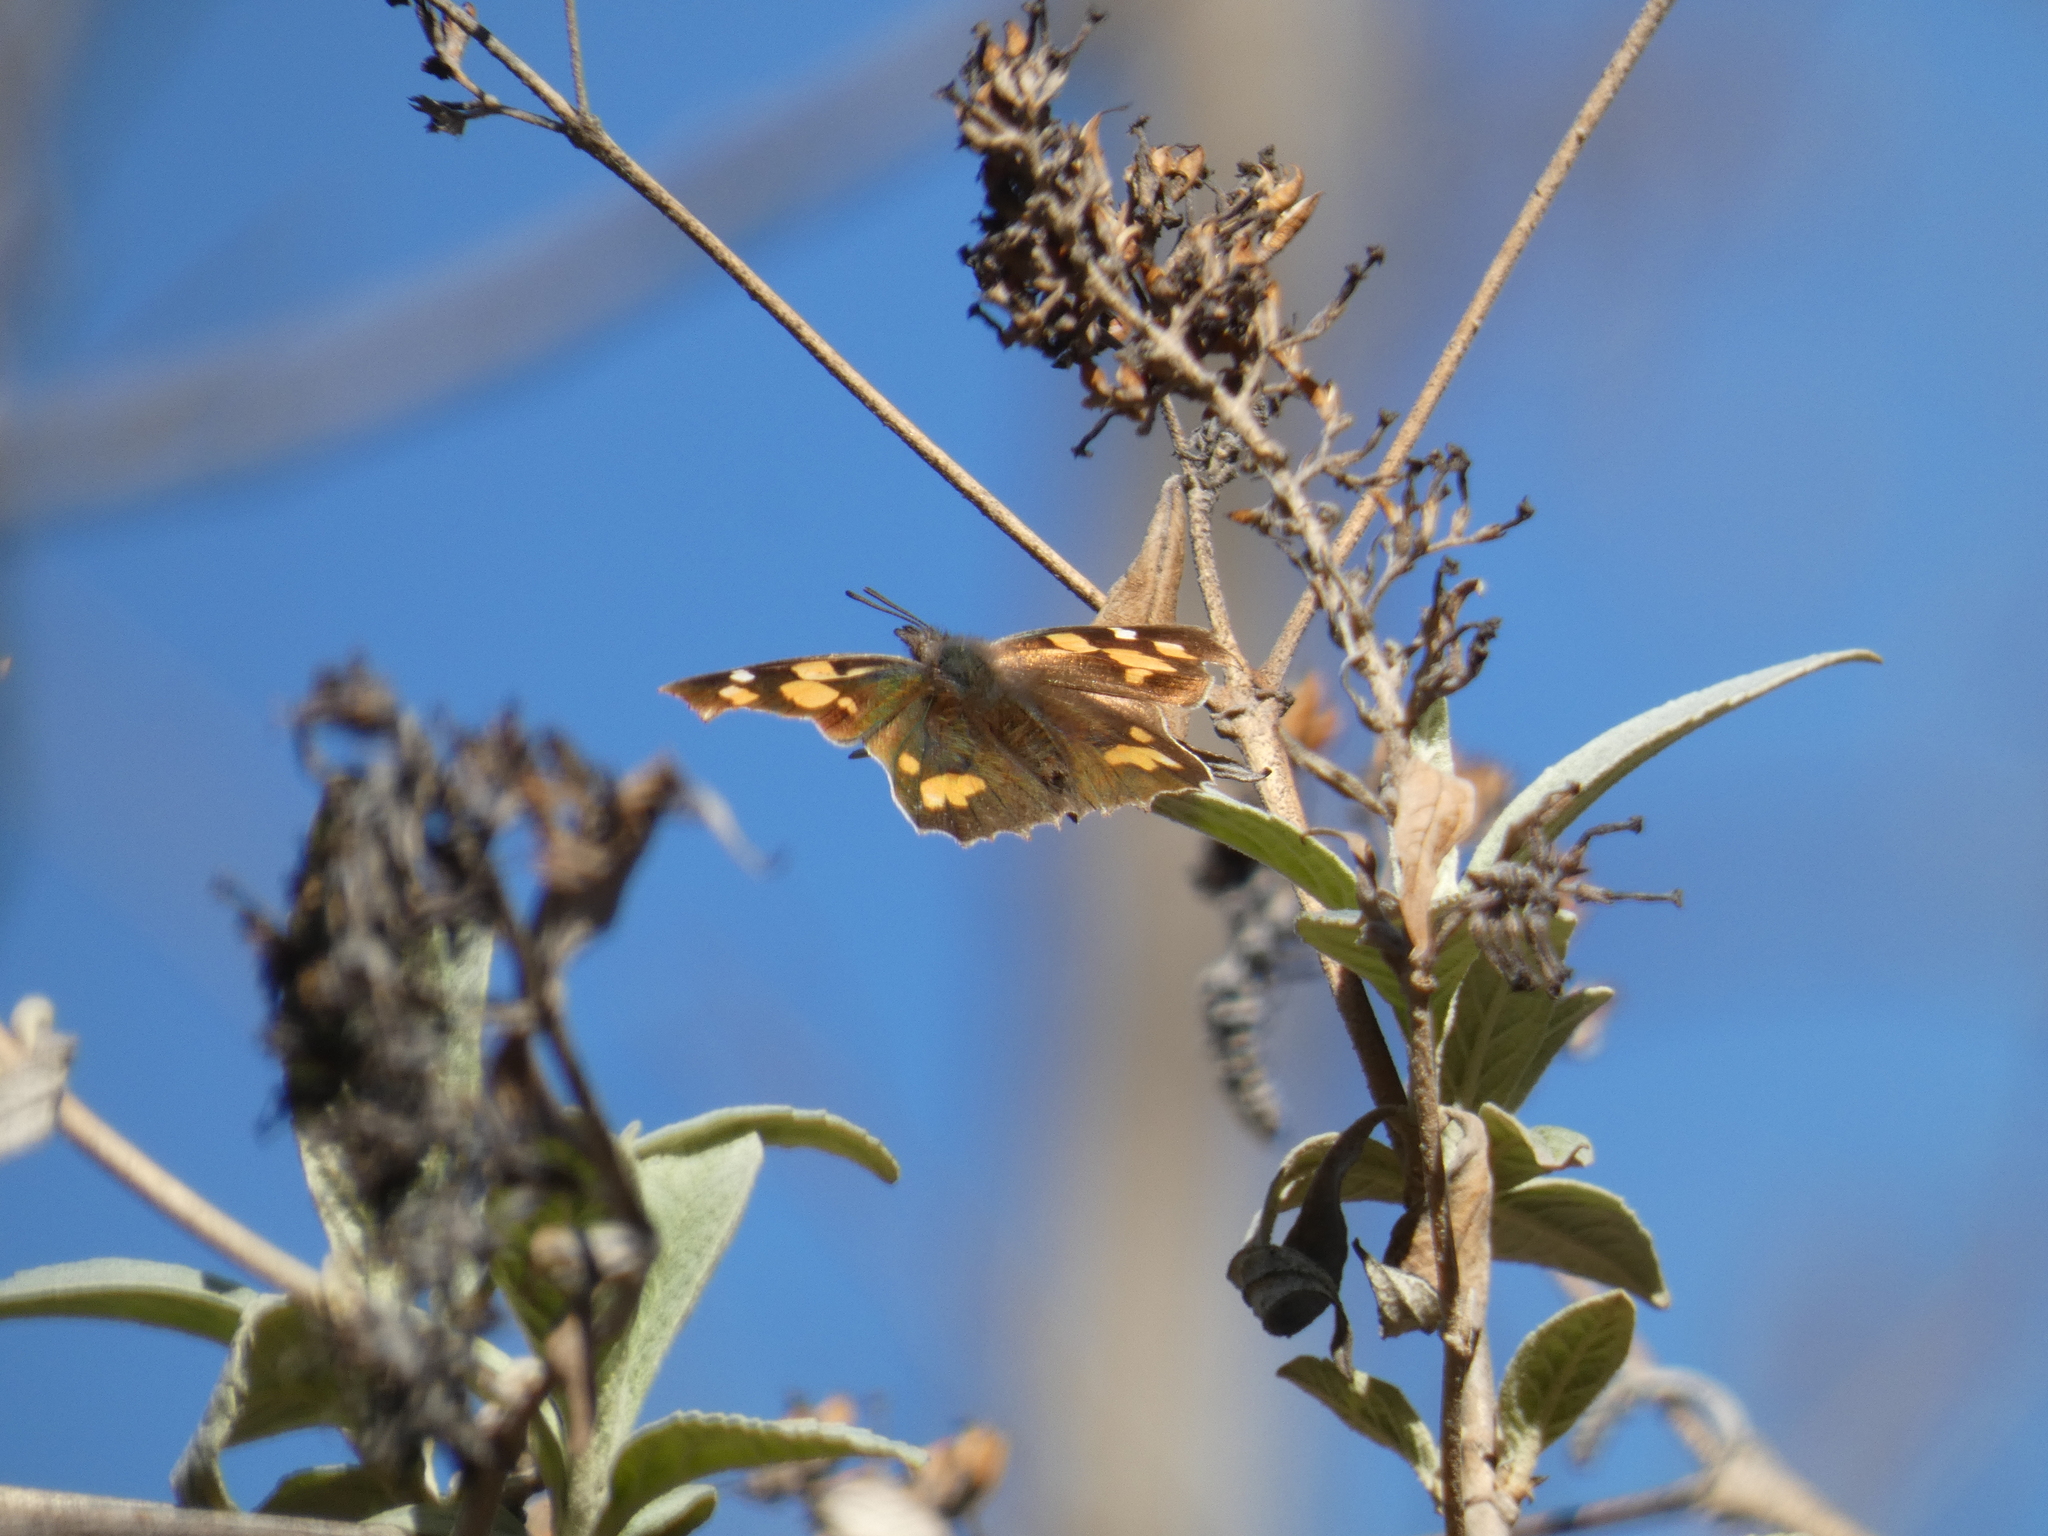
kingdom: Animalia
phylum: Arthropoda
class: Insecta
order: Lepidoptera
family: Nymphalidae
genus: Libythea
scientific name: Libythea celtis
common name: Nettle-tree butterfly
